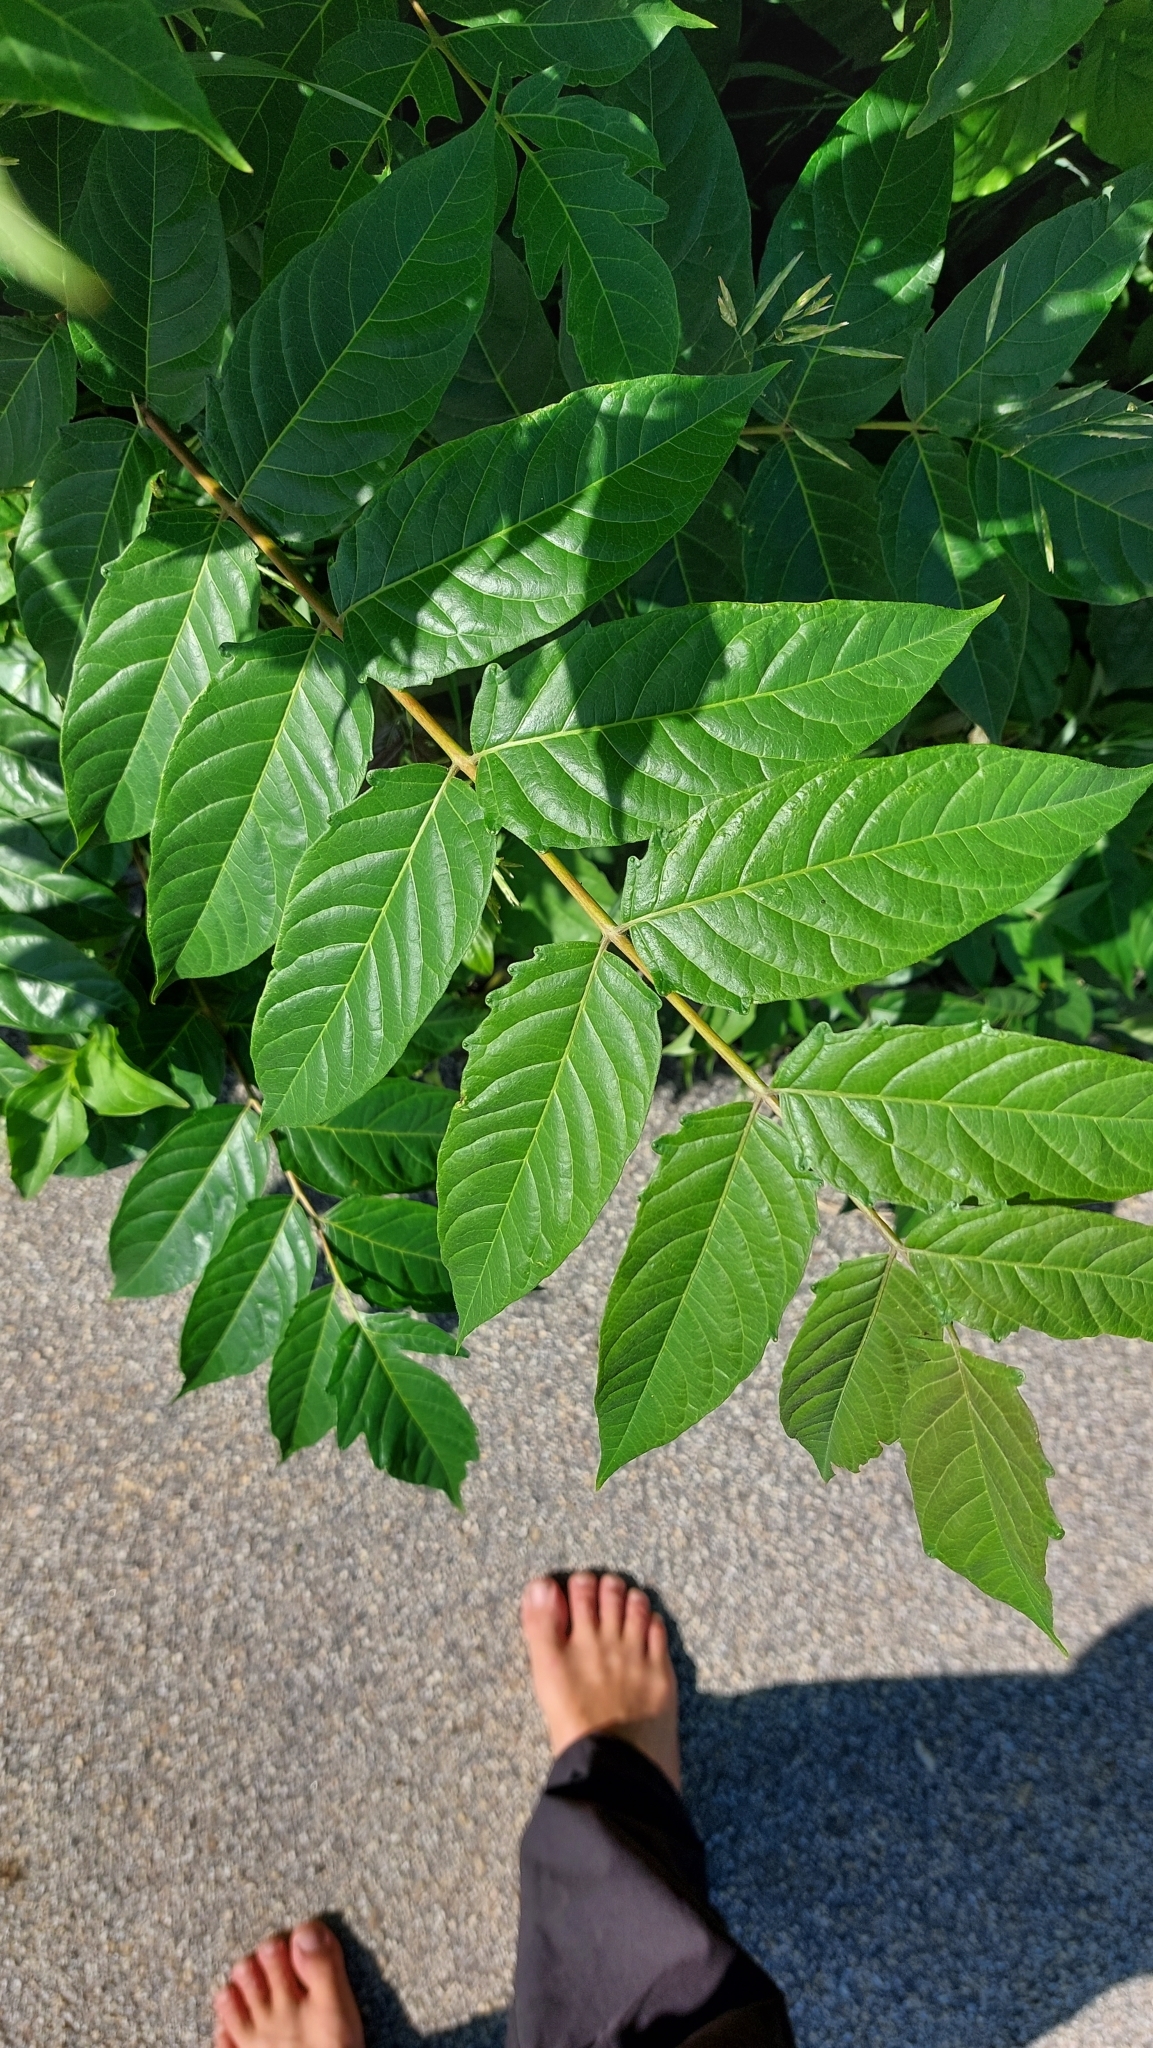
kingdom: Plantae
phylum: Tracheophyta
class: Magnoliopsida
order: Sapindales
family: Simaroubaceae
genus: Ailanthus
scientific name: Ailanthus altissima
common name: Tree-of-heaven
